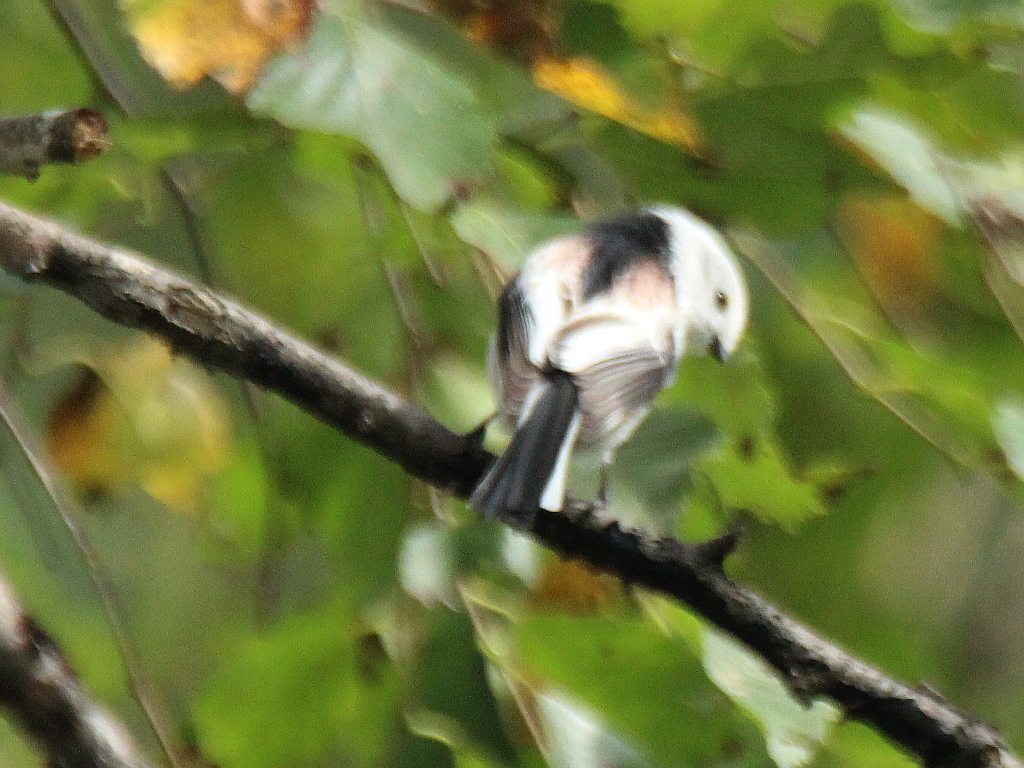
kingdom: Animalia
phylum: Chordata
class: Aves
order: Passeriformes
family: Aegithalidae
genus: Aegithalos
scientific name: Aegithalos caudatus
